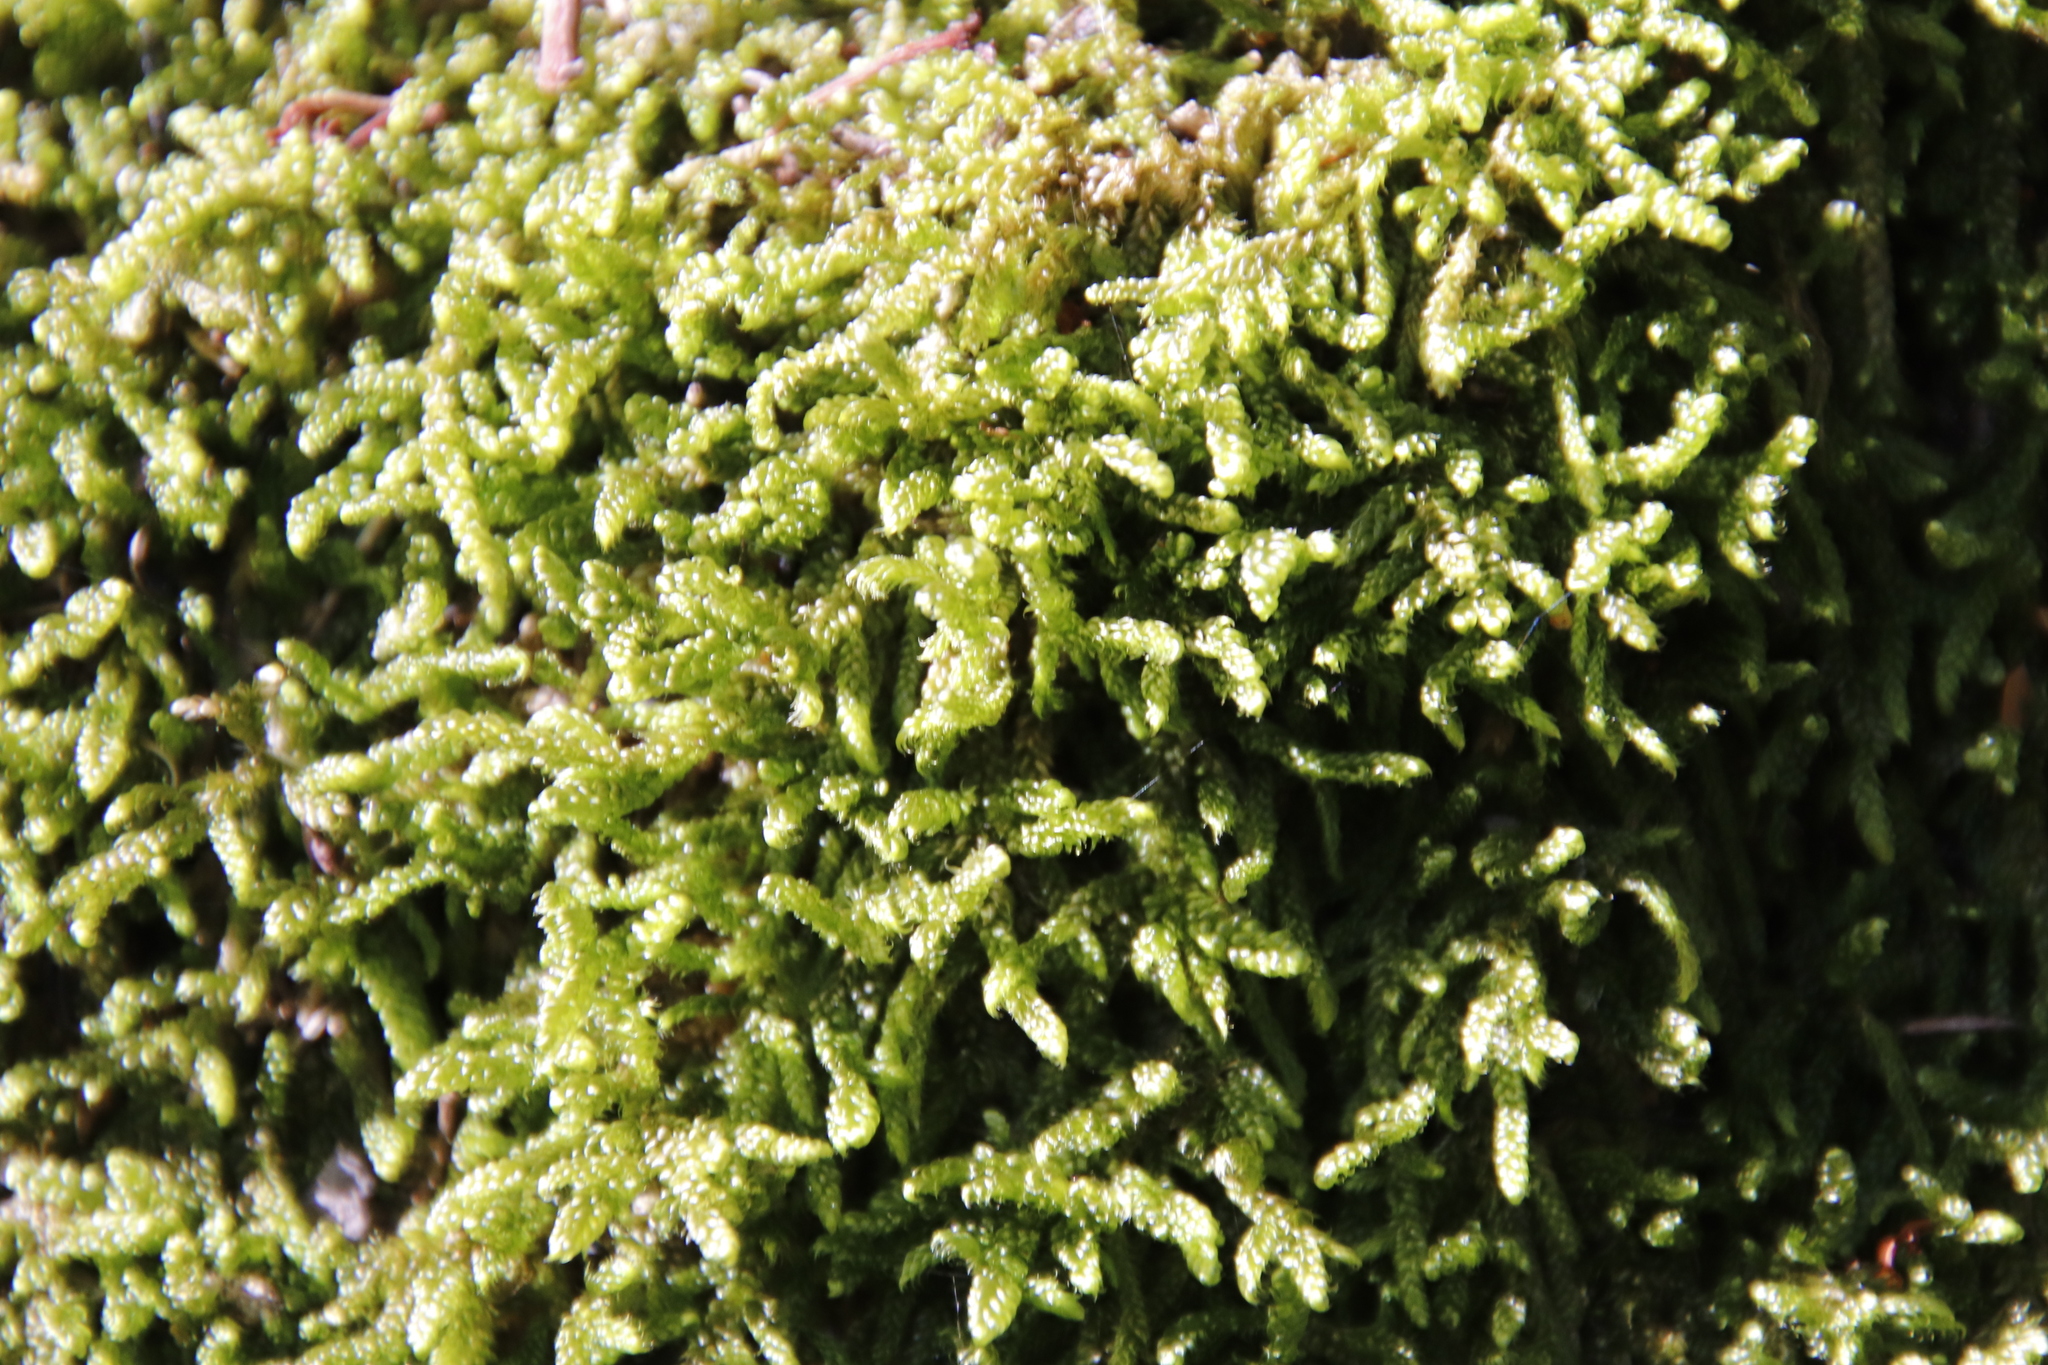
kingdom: Plantae
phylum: Bryophyta
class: Bryopsida
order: Hypnales
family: Hypnaceae
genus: Hypnum
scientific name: Hypnum cupressiforme
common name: Cypress-leaved plait-moss
